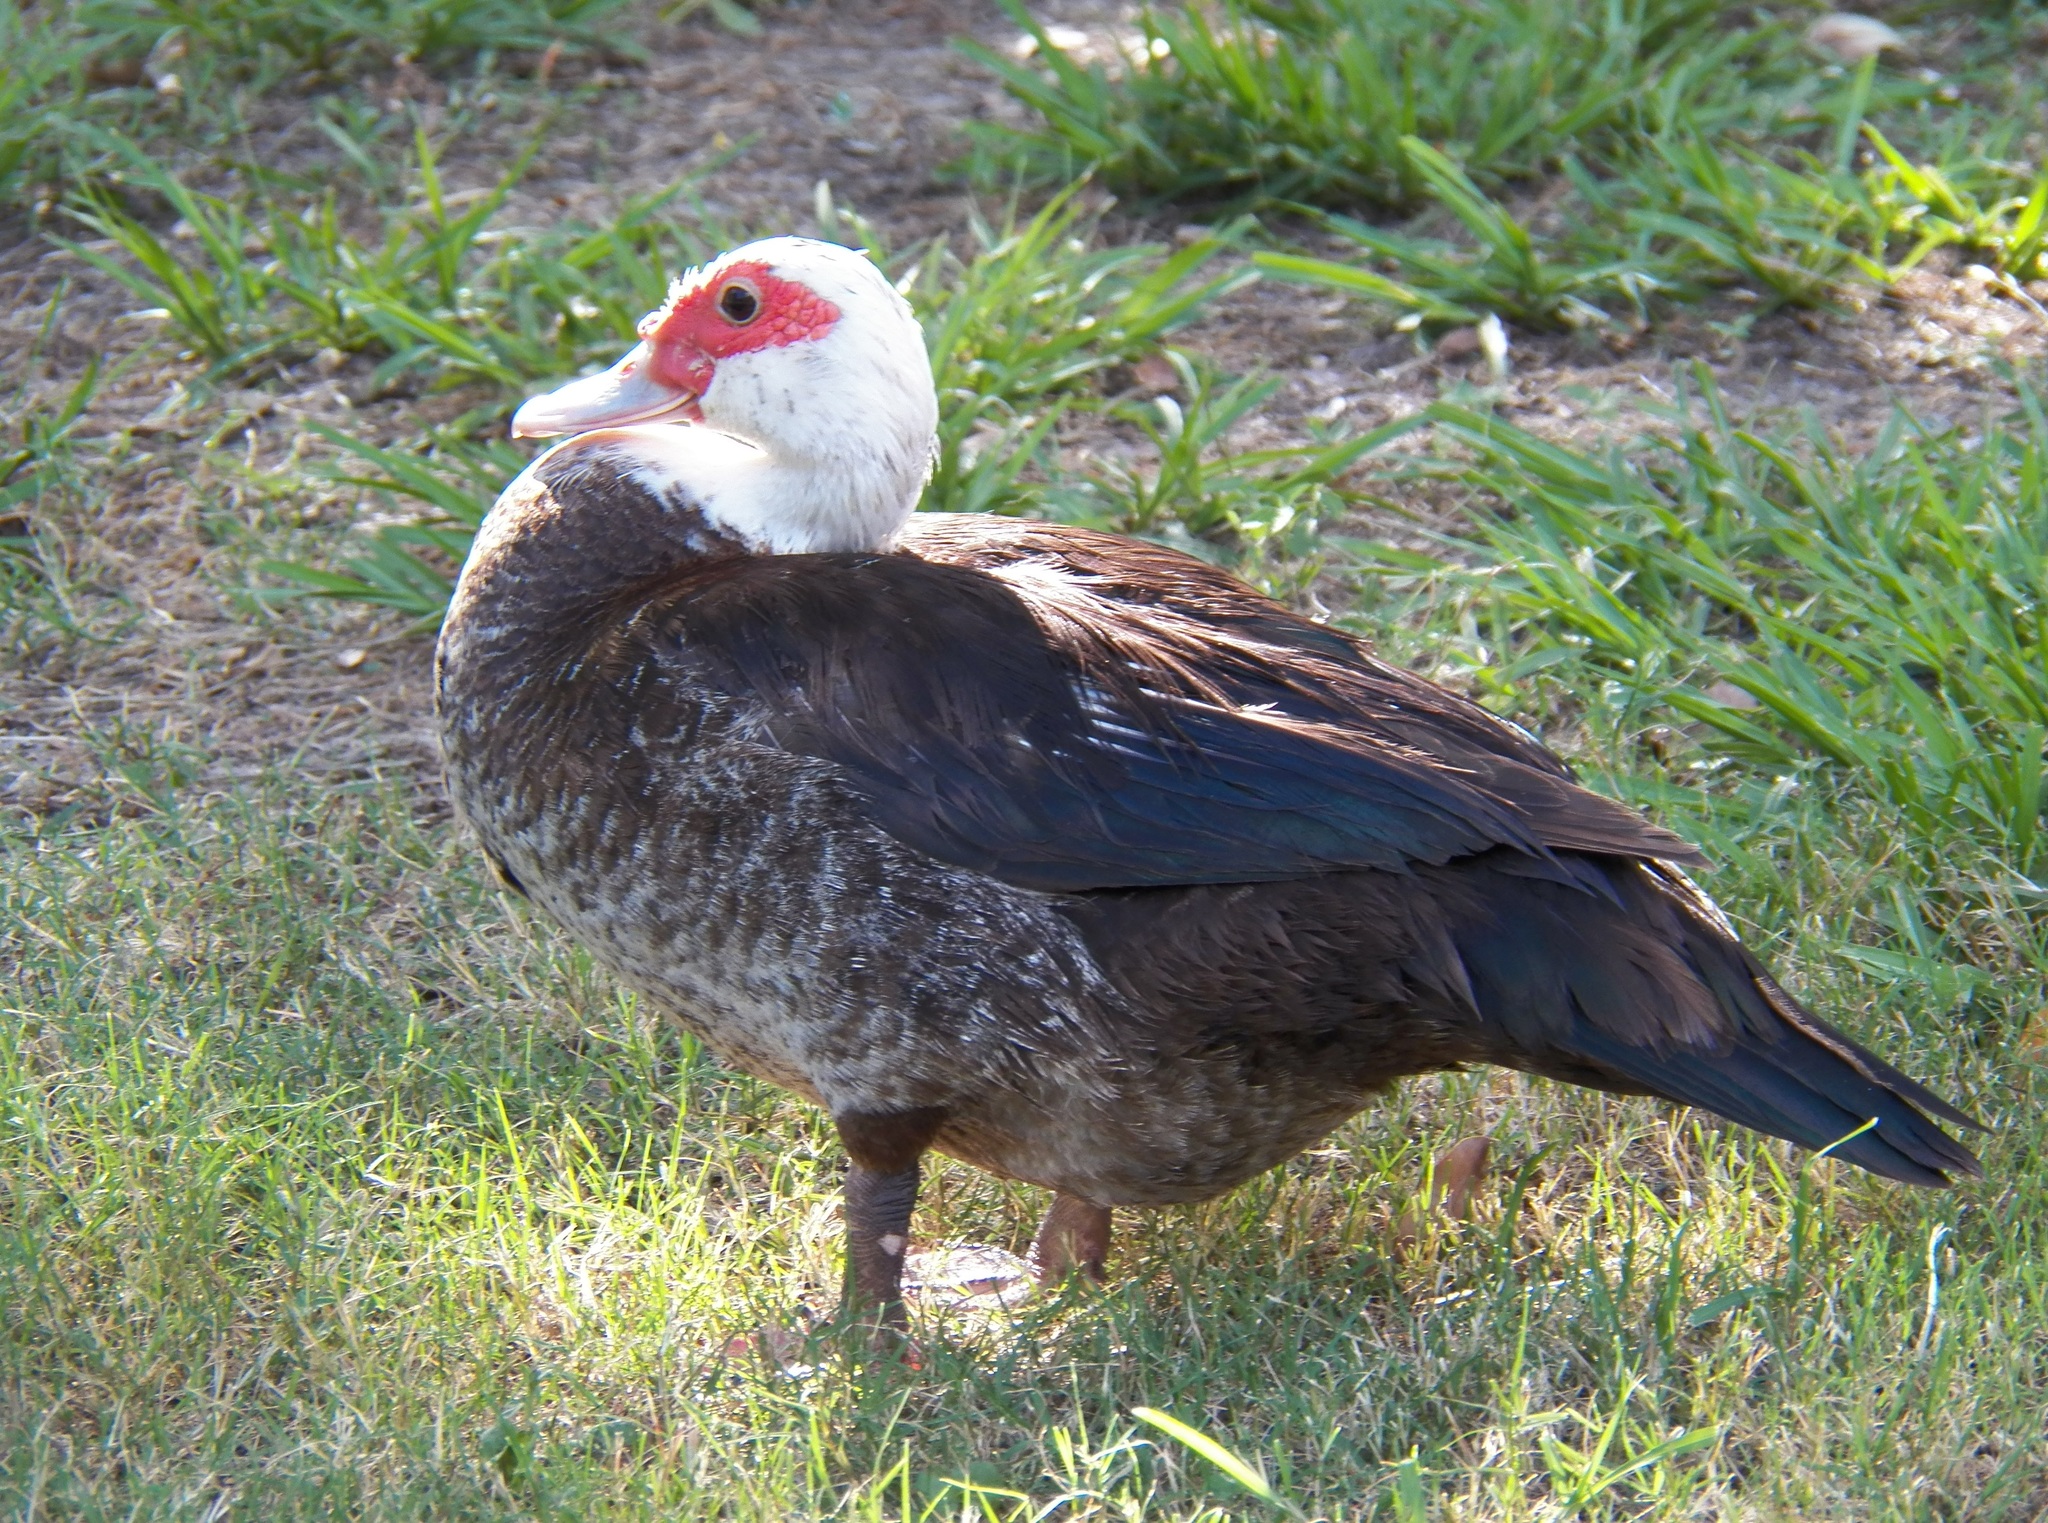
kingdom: Animalia
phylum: Chordata
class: Aves
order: Anseriformes
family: Anatidae
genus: Cairina
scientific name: Cairina moschata
